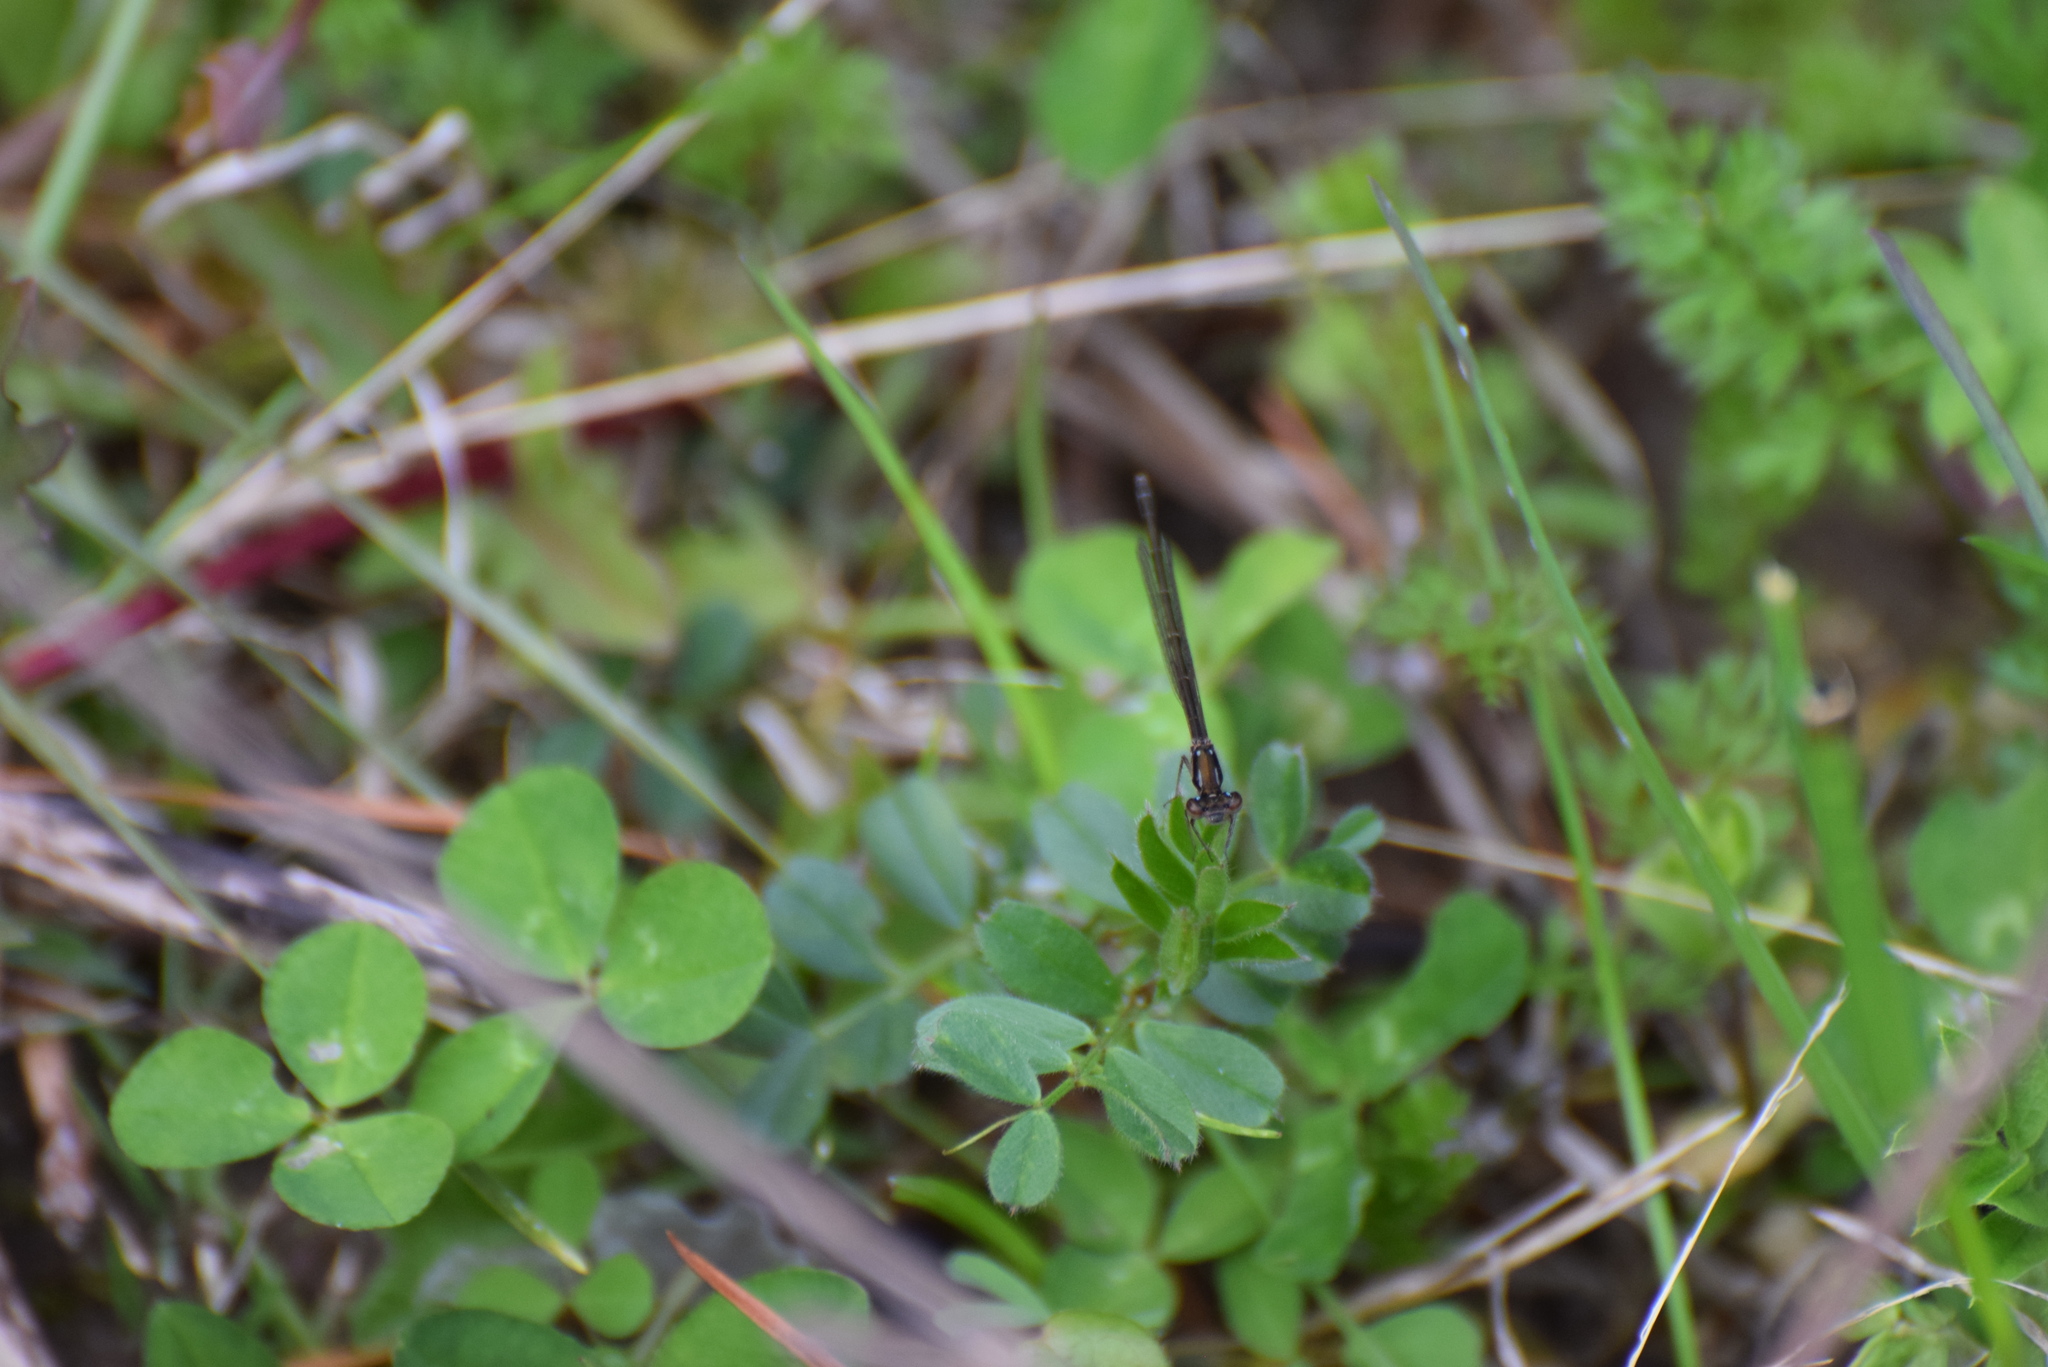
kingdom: Animalia
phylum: Arthropoda
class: Insecta
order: Odonata
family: Coenagrionidae
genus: Ischnura
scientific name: Ischnura posita
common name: Fragile forktail
